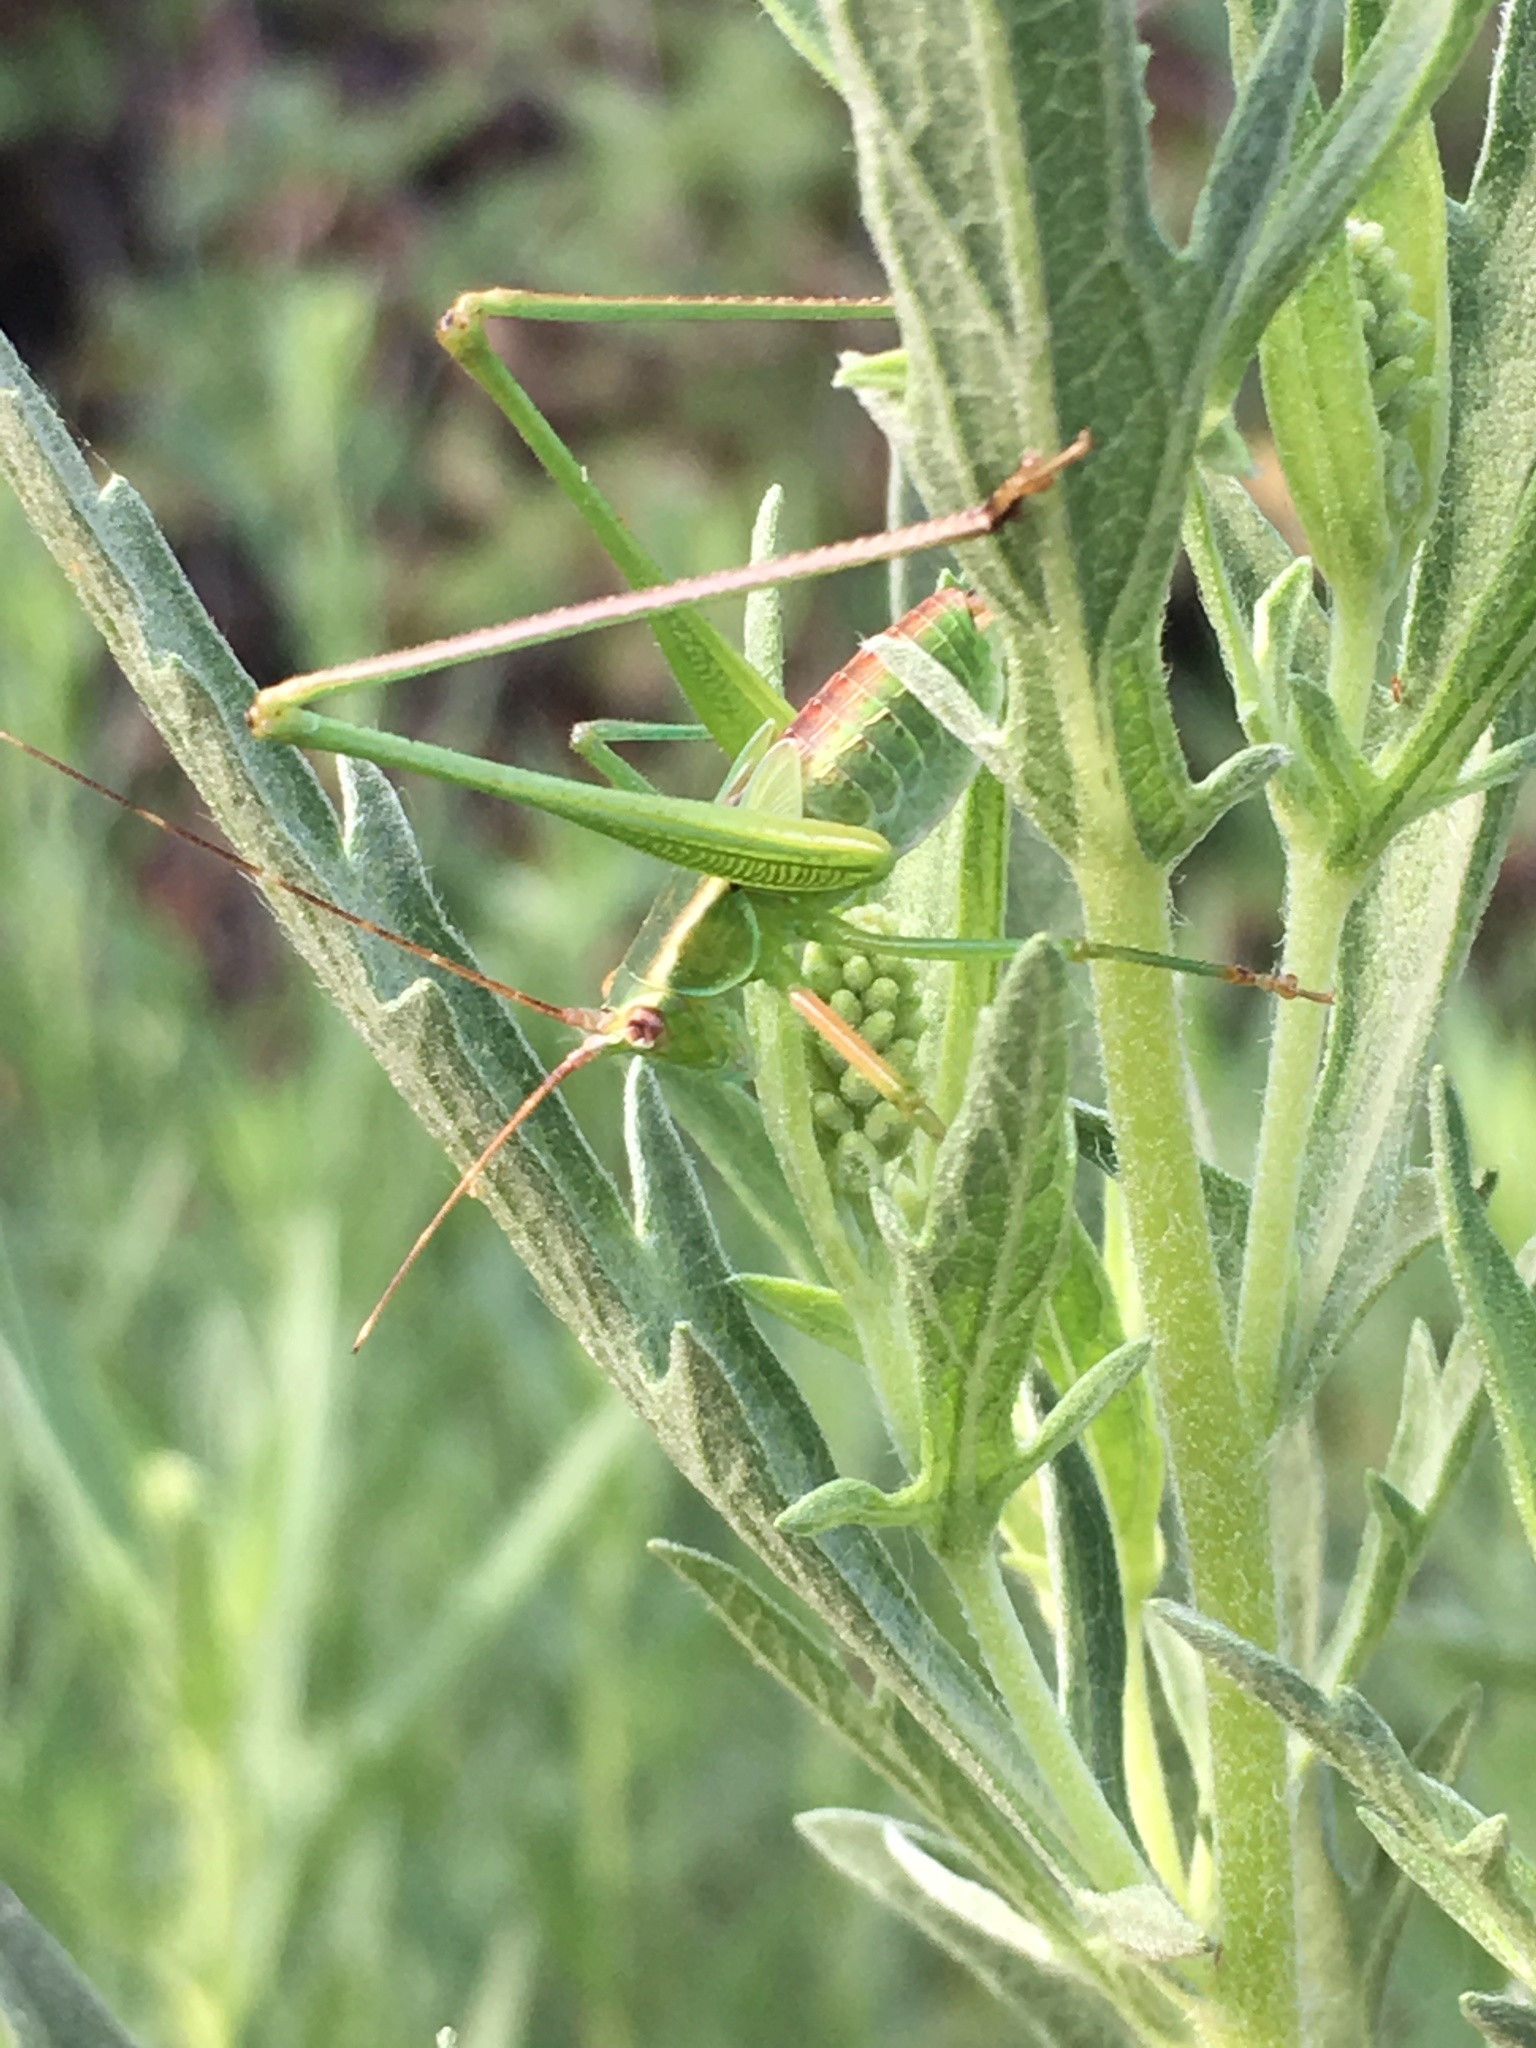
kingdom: Animalia
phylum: Arthropoda
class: Insecta
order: Orthoptera
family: Tettigoniidae
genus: Scudderia
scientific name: Scudderia
